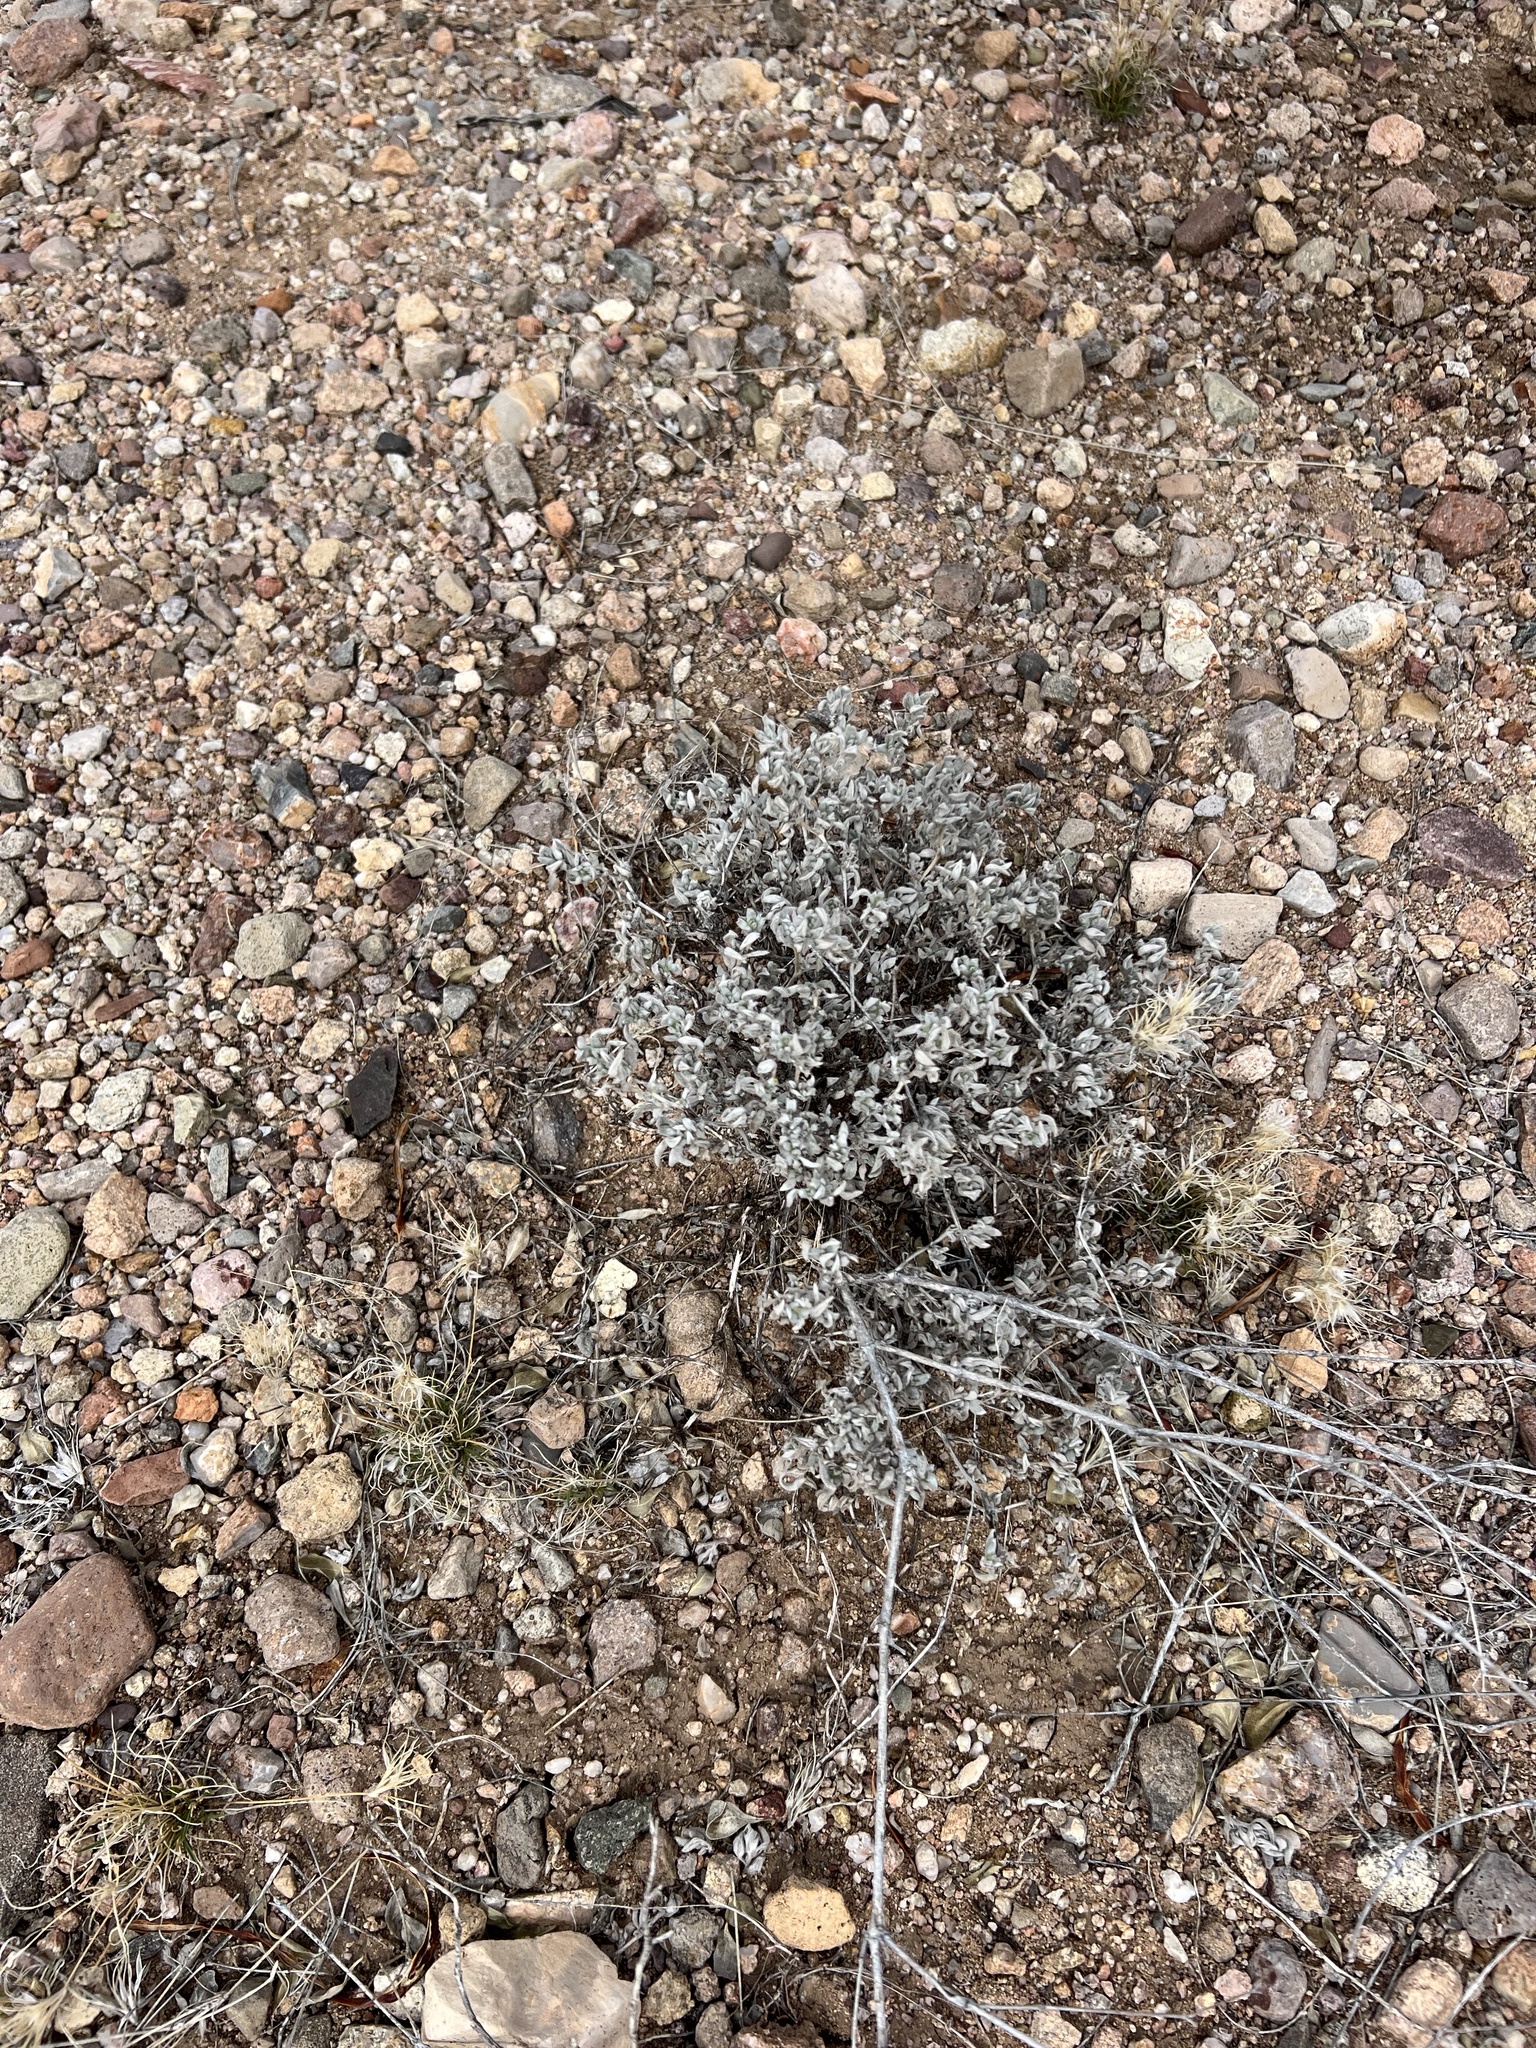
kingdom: Plantae
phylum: Tracheophyta
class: Magnoliopsida
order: Boraginales
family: Ehretiaceae
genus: Tiquilia
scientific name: Tiquilia canescens
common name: Hairy tiquilia
